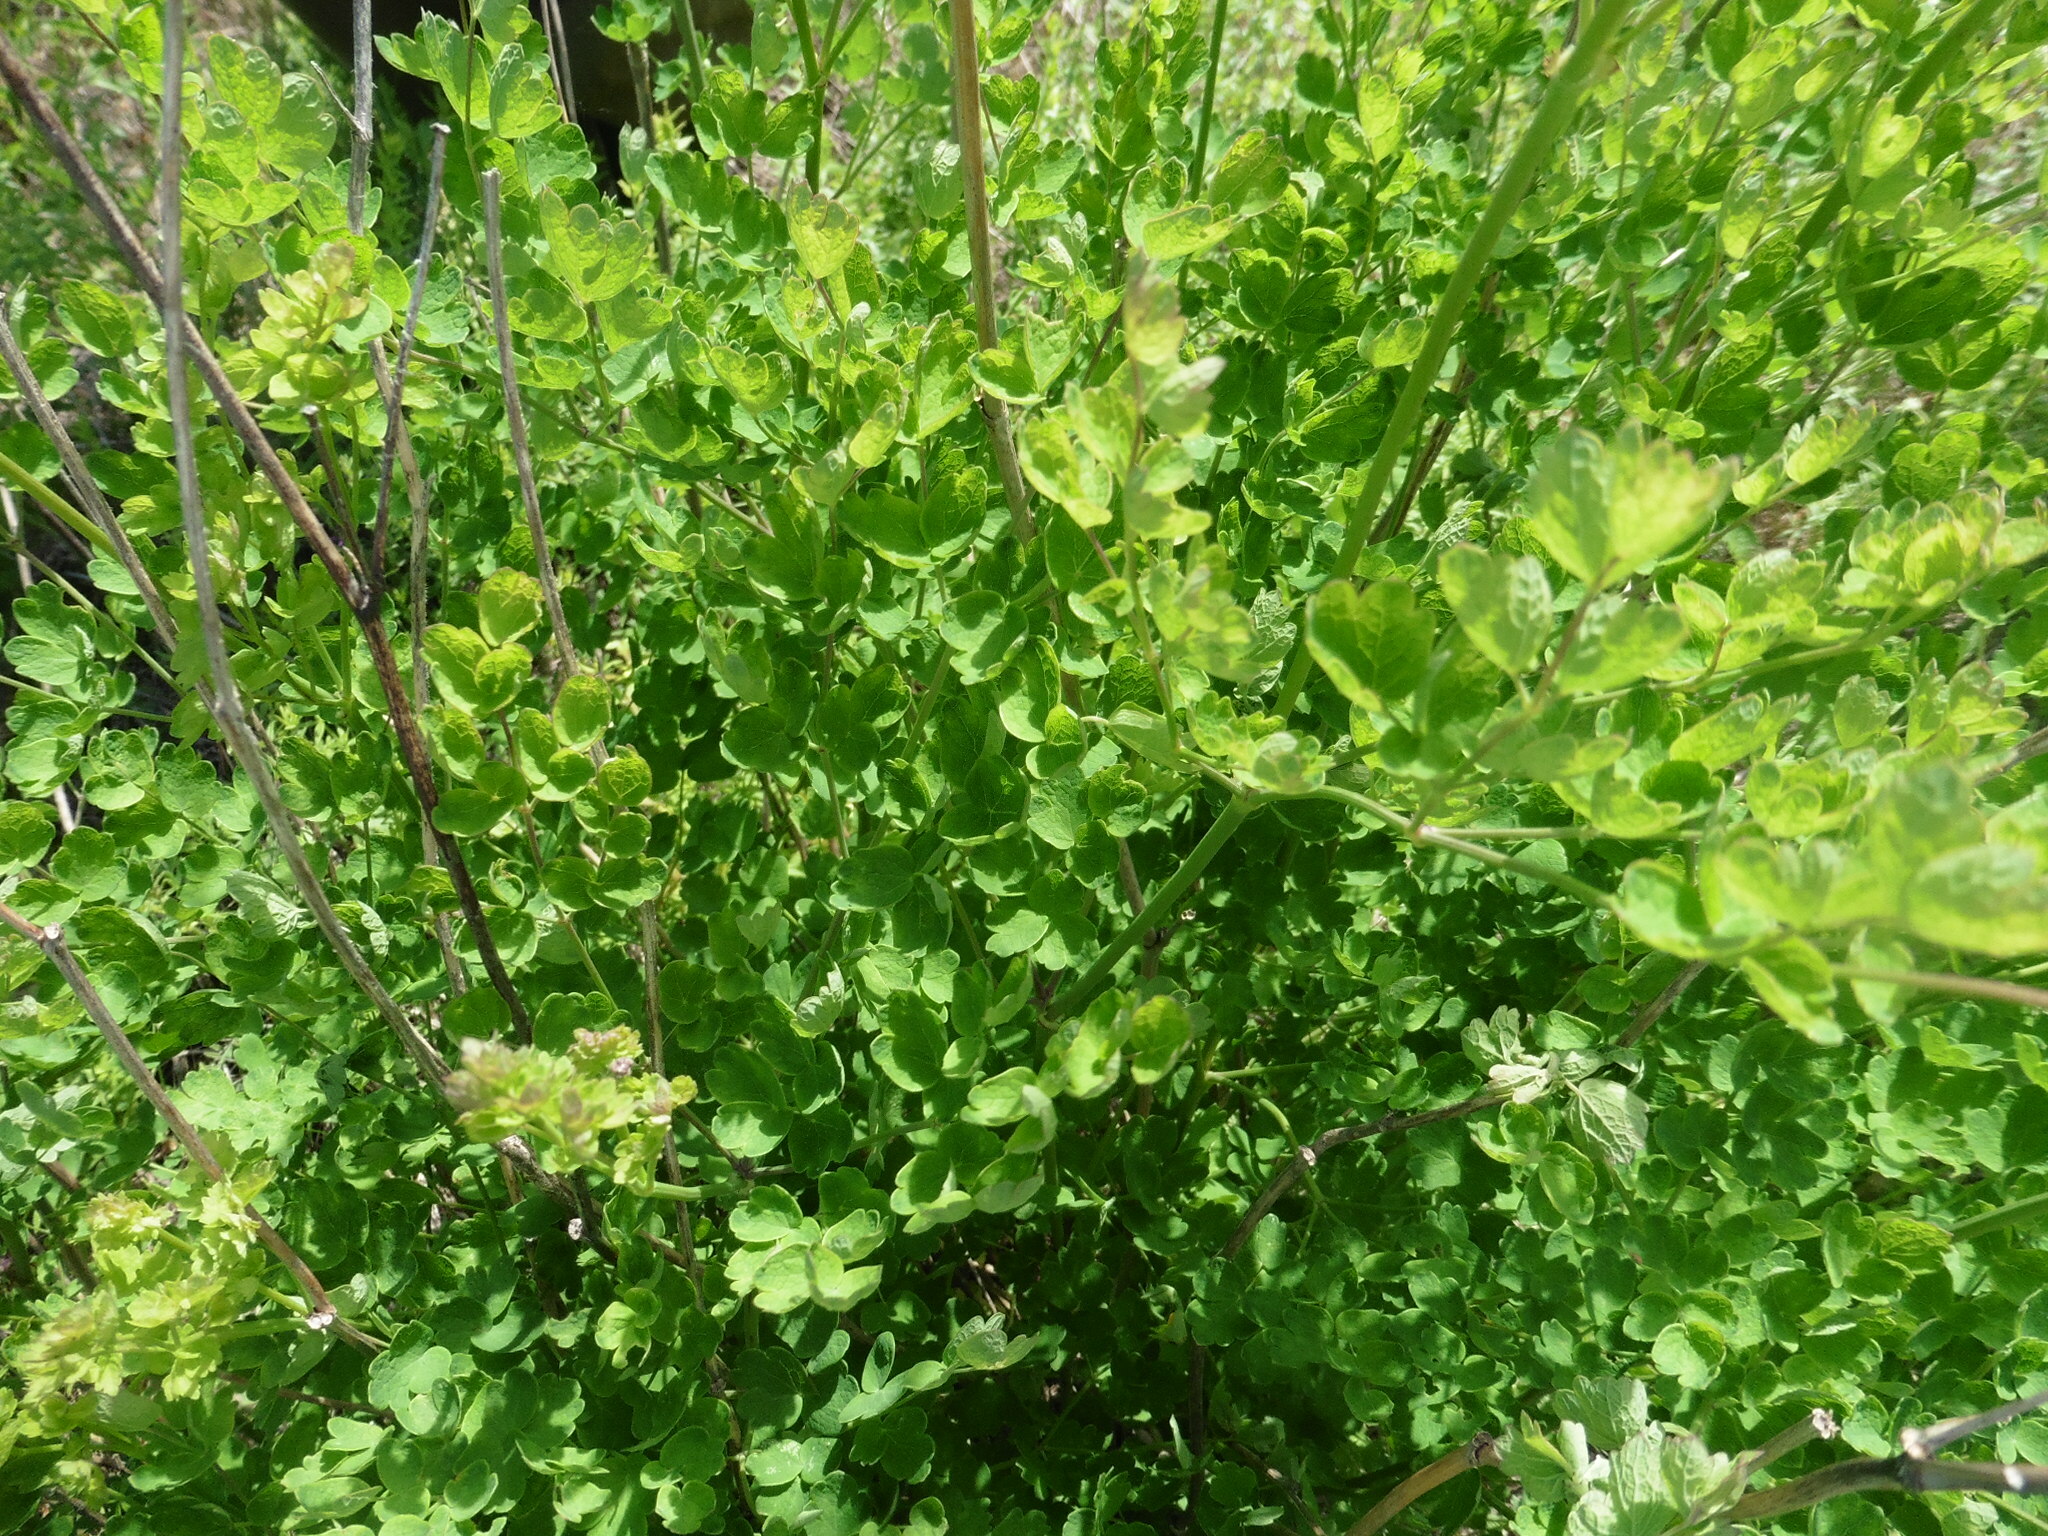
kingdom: Plantae
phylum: Tracheophyta
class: Magnoliopsida
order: Ranunculales
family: Ranunculaceae
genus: Thalictrum
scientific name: Thalictrum minus
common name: Lesser meadow-rue
